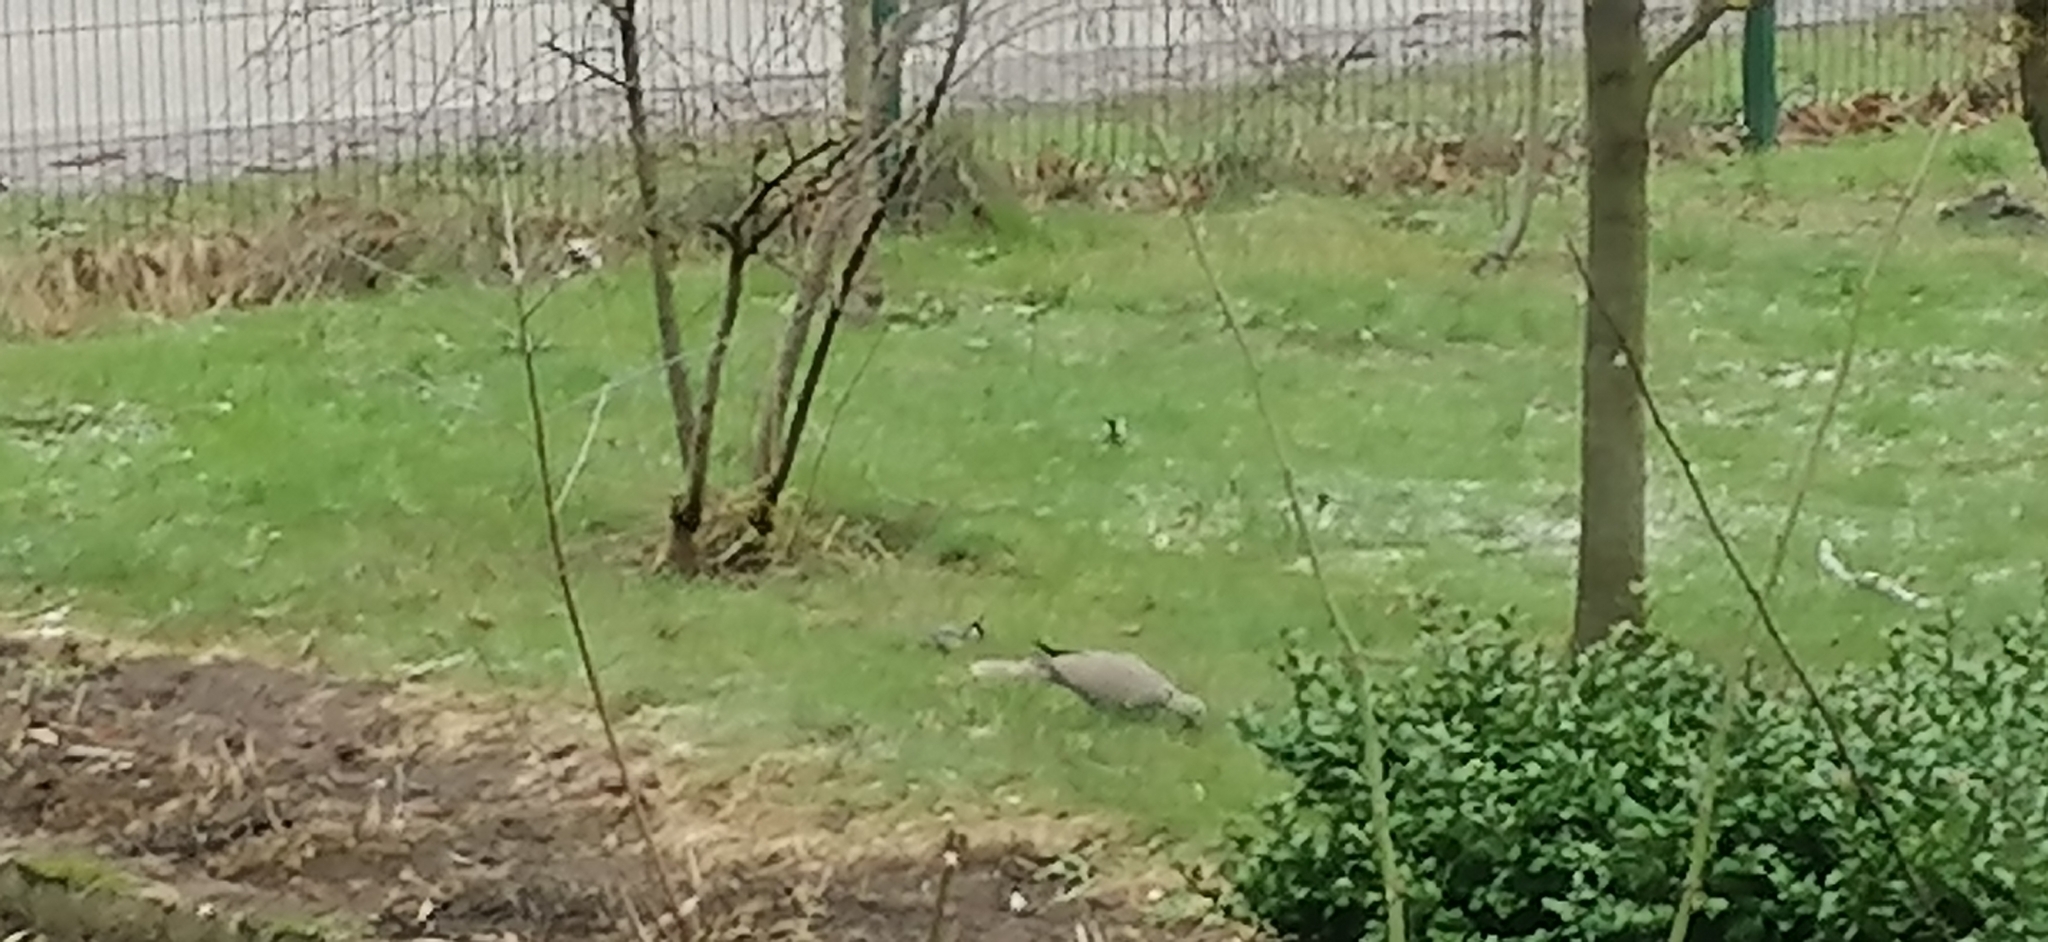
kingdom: Animalia
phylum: Chordata
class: Aves
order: Columbiformes
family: Columbidae
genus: Streptopelia
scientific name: Streptopelia decaocto
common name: Eurasian collared dove
